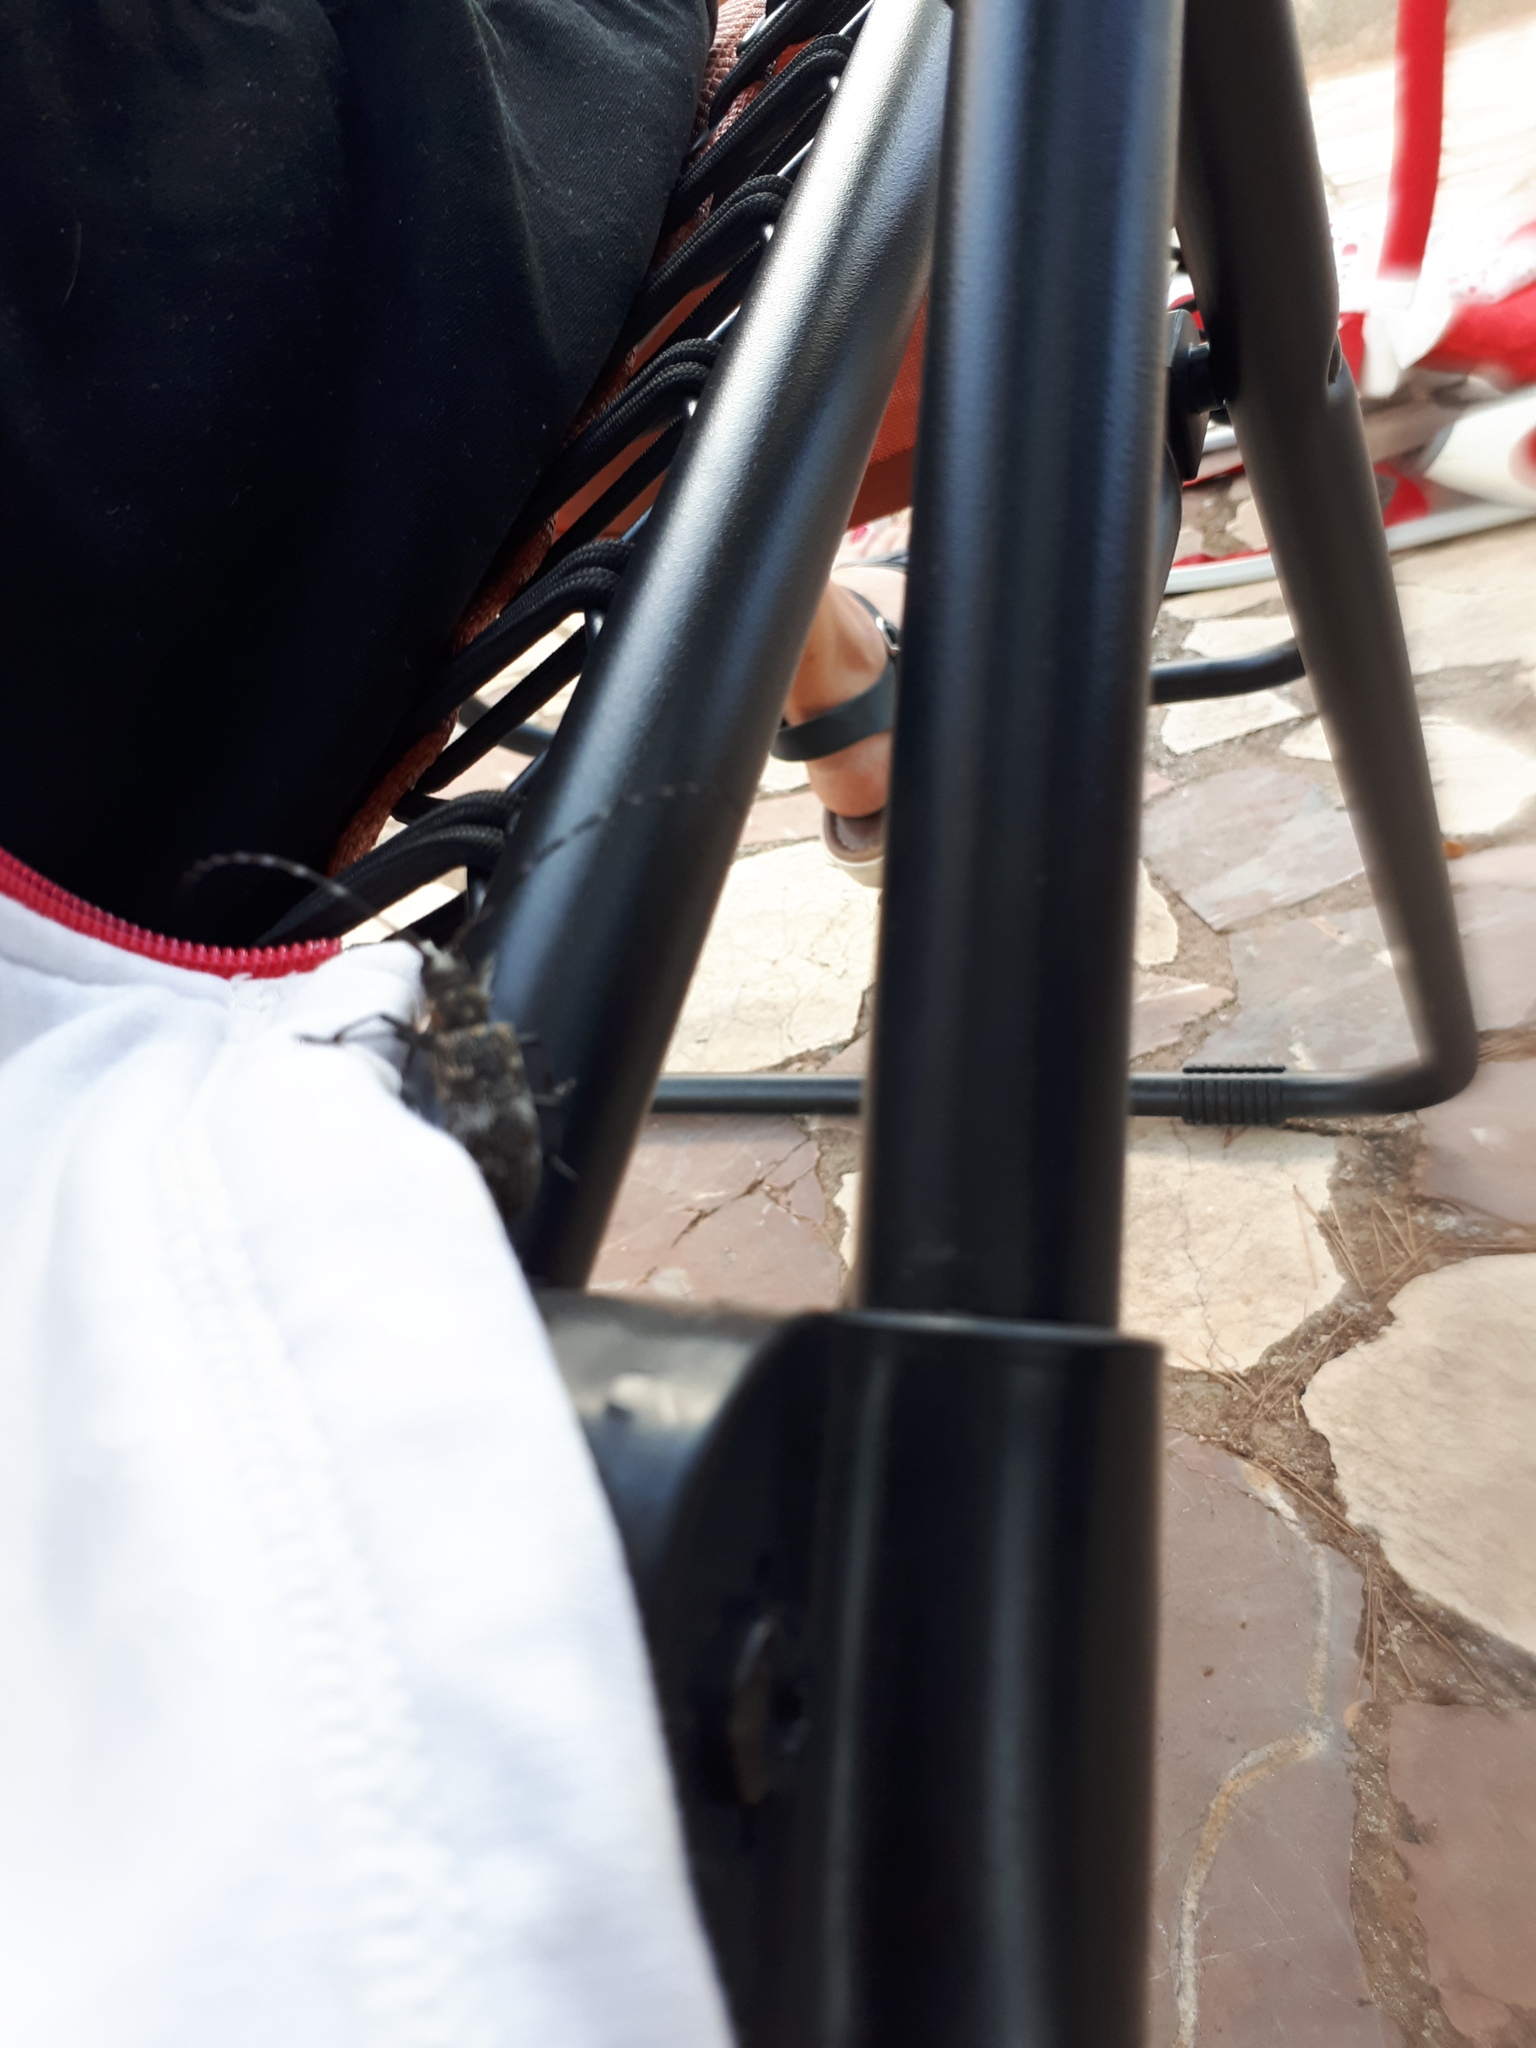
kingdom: Animalia
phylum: Arthropoda
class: Insecta
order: Coleoptera
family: Cerambycidae
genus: Monochamus
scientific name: Monochamus galloprovincialis
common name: Pine sawyer
